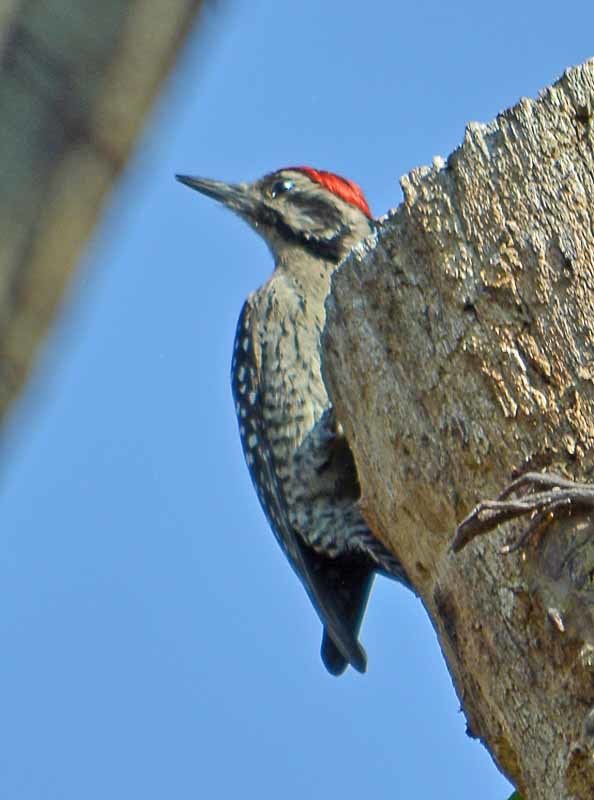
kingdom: Animalia
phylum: Chordata
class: Aves
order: Piciformes
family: Picidae
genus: Dryobates
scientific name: Dryobates scalaris
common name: Ladder-backed woodpecker
